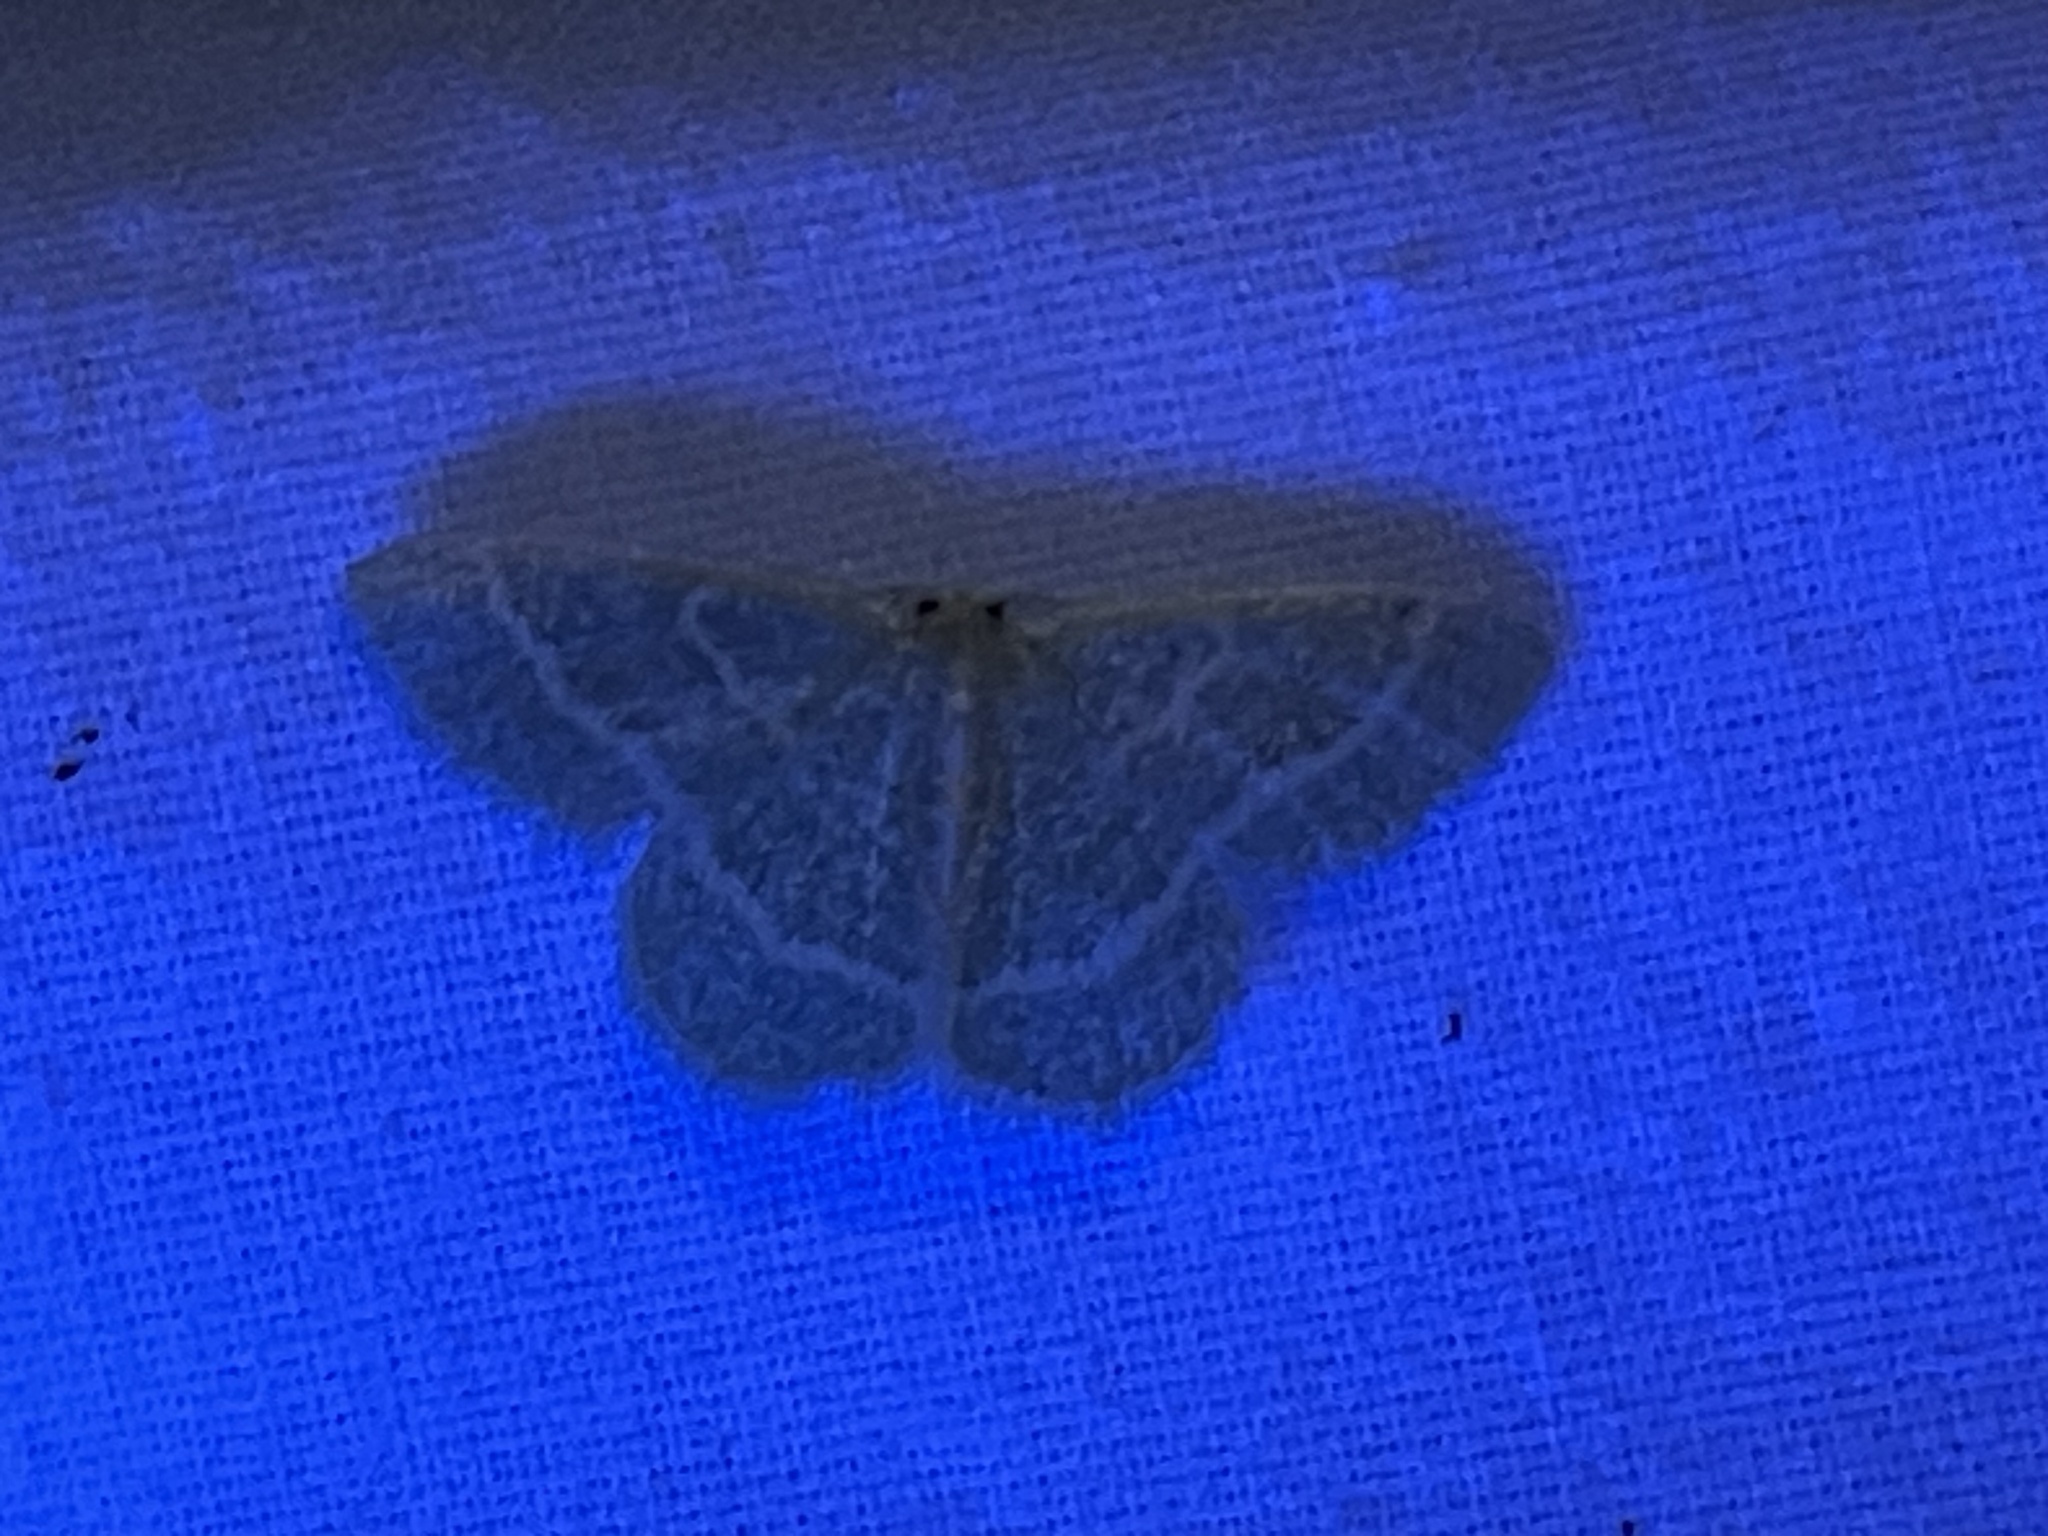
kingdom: Animalia
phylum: Arthropoda
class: Insecta
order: Lepidoptera
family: Geometridae
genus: Chlorochlamys
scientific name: Chlorochlamys chloroleucaria
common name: Blackberry looper
